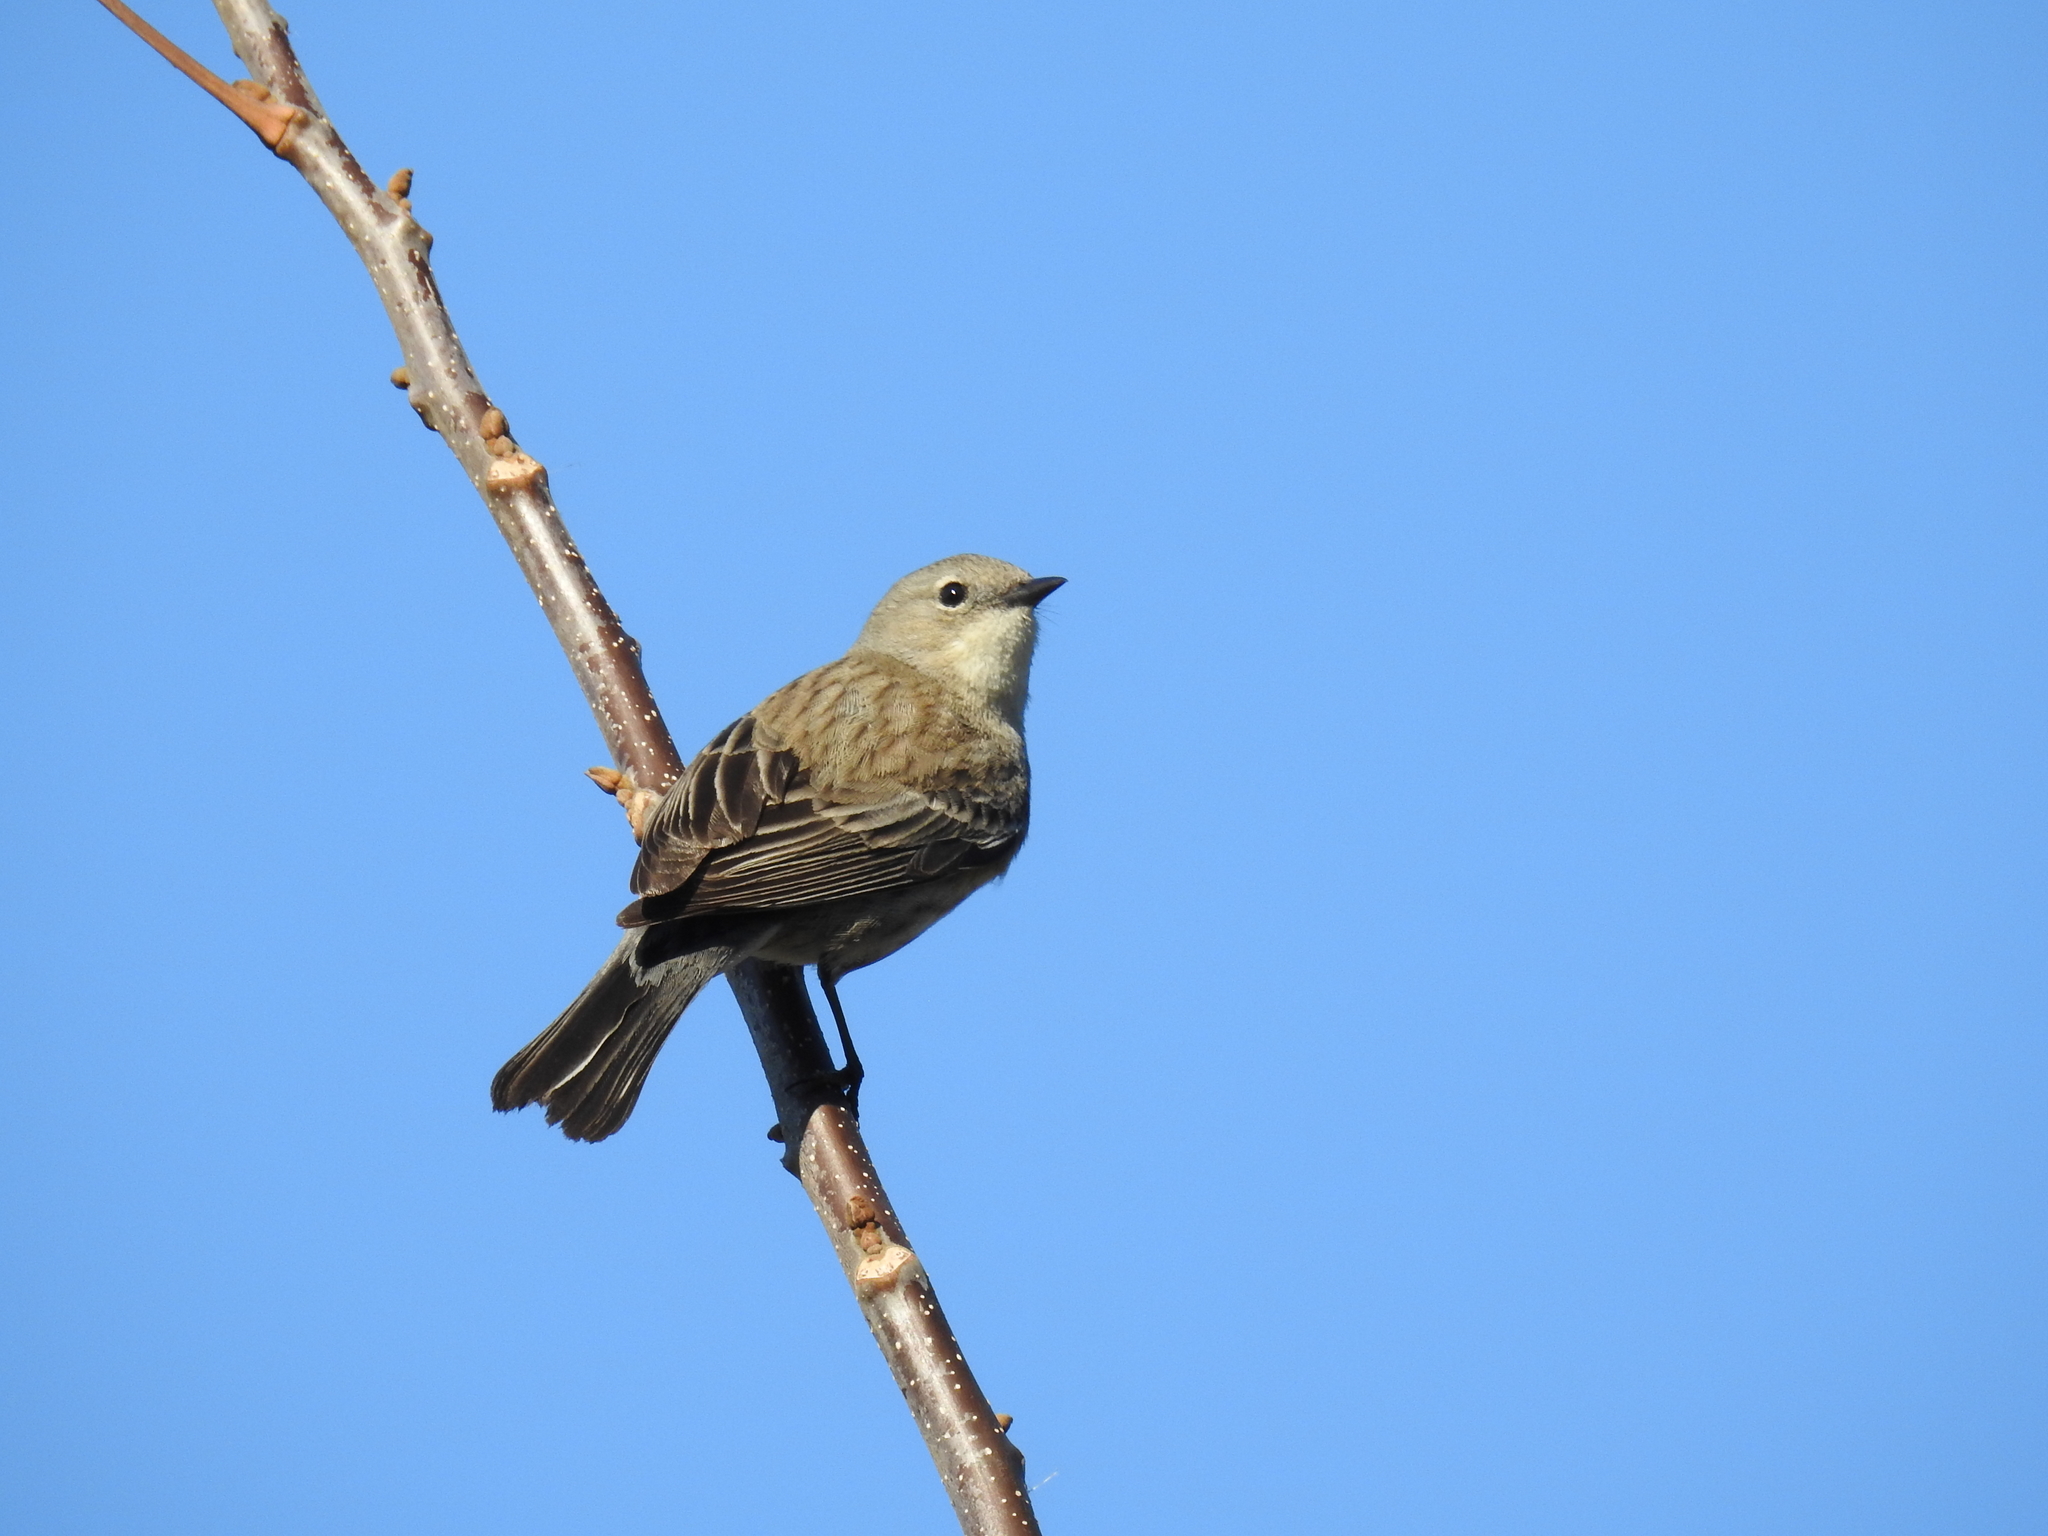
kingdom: Animalia
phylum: Chordata
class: Aves
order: Passeriformes
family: Parulidae
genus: Setophaga
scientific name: Setophaga coronata
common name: Myrtle warbler
